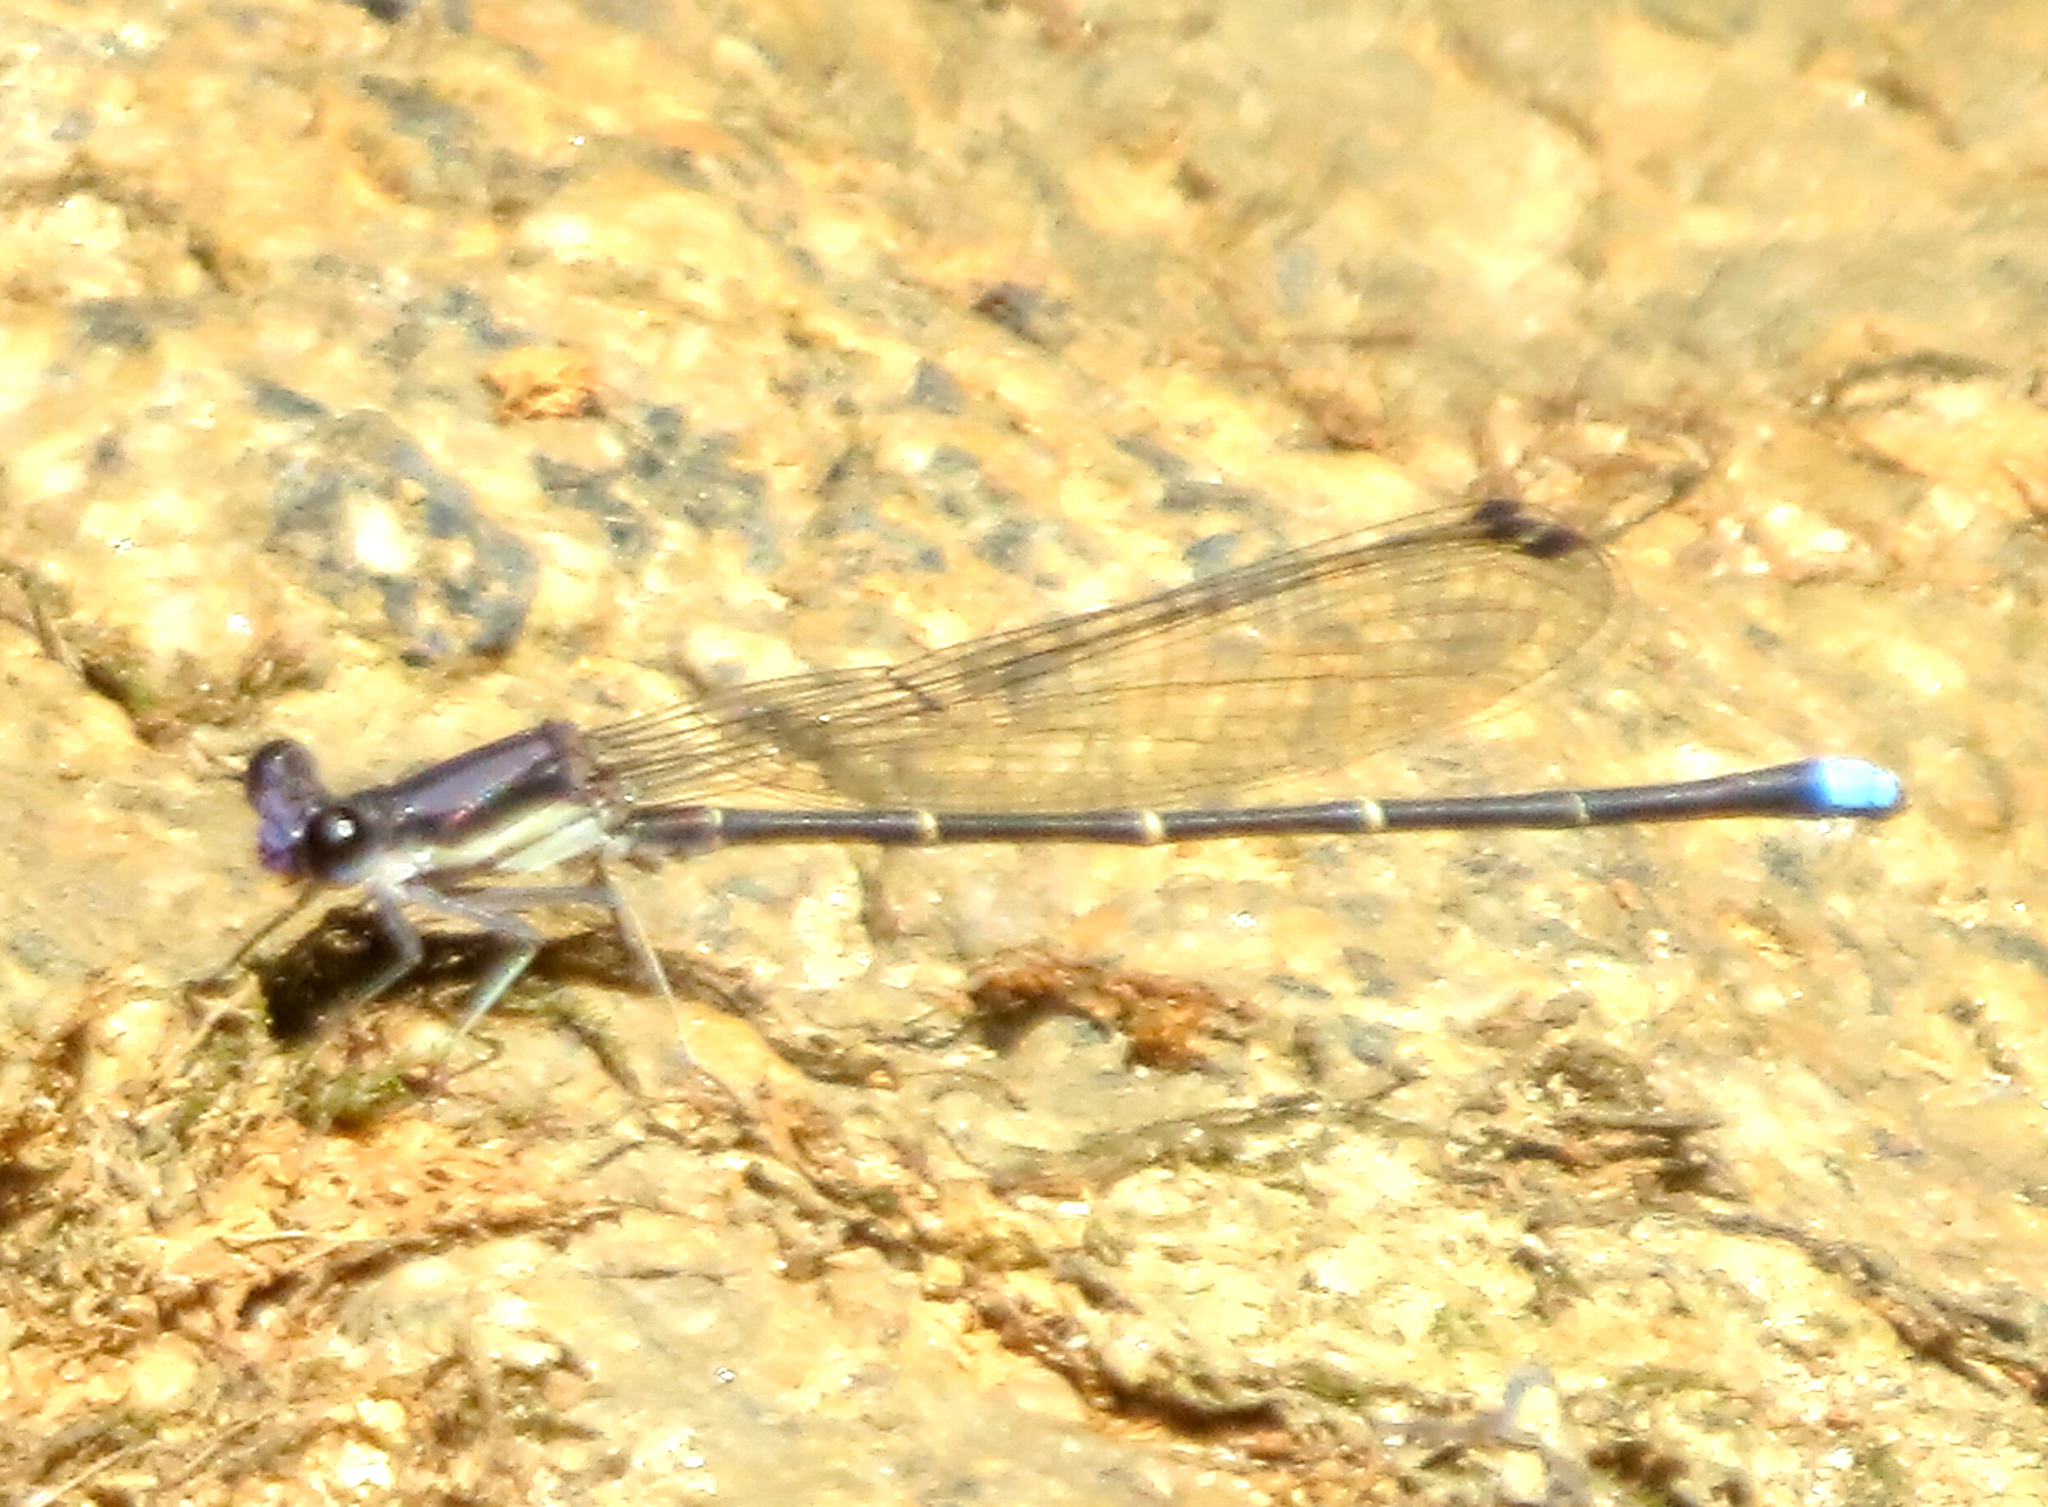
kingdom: Animalia
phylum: Arthropoda
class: Insecta
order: Odonata
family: Coenagrionidae
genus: Argia
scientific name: Argia tibialis
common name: Blue-tipped dancer
